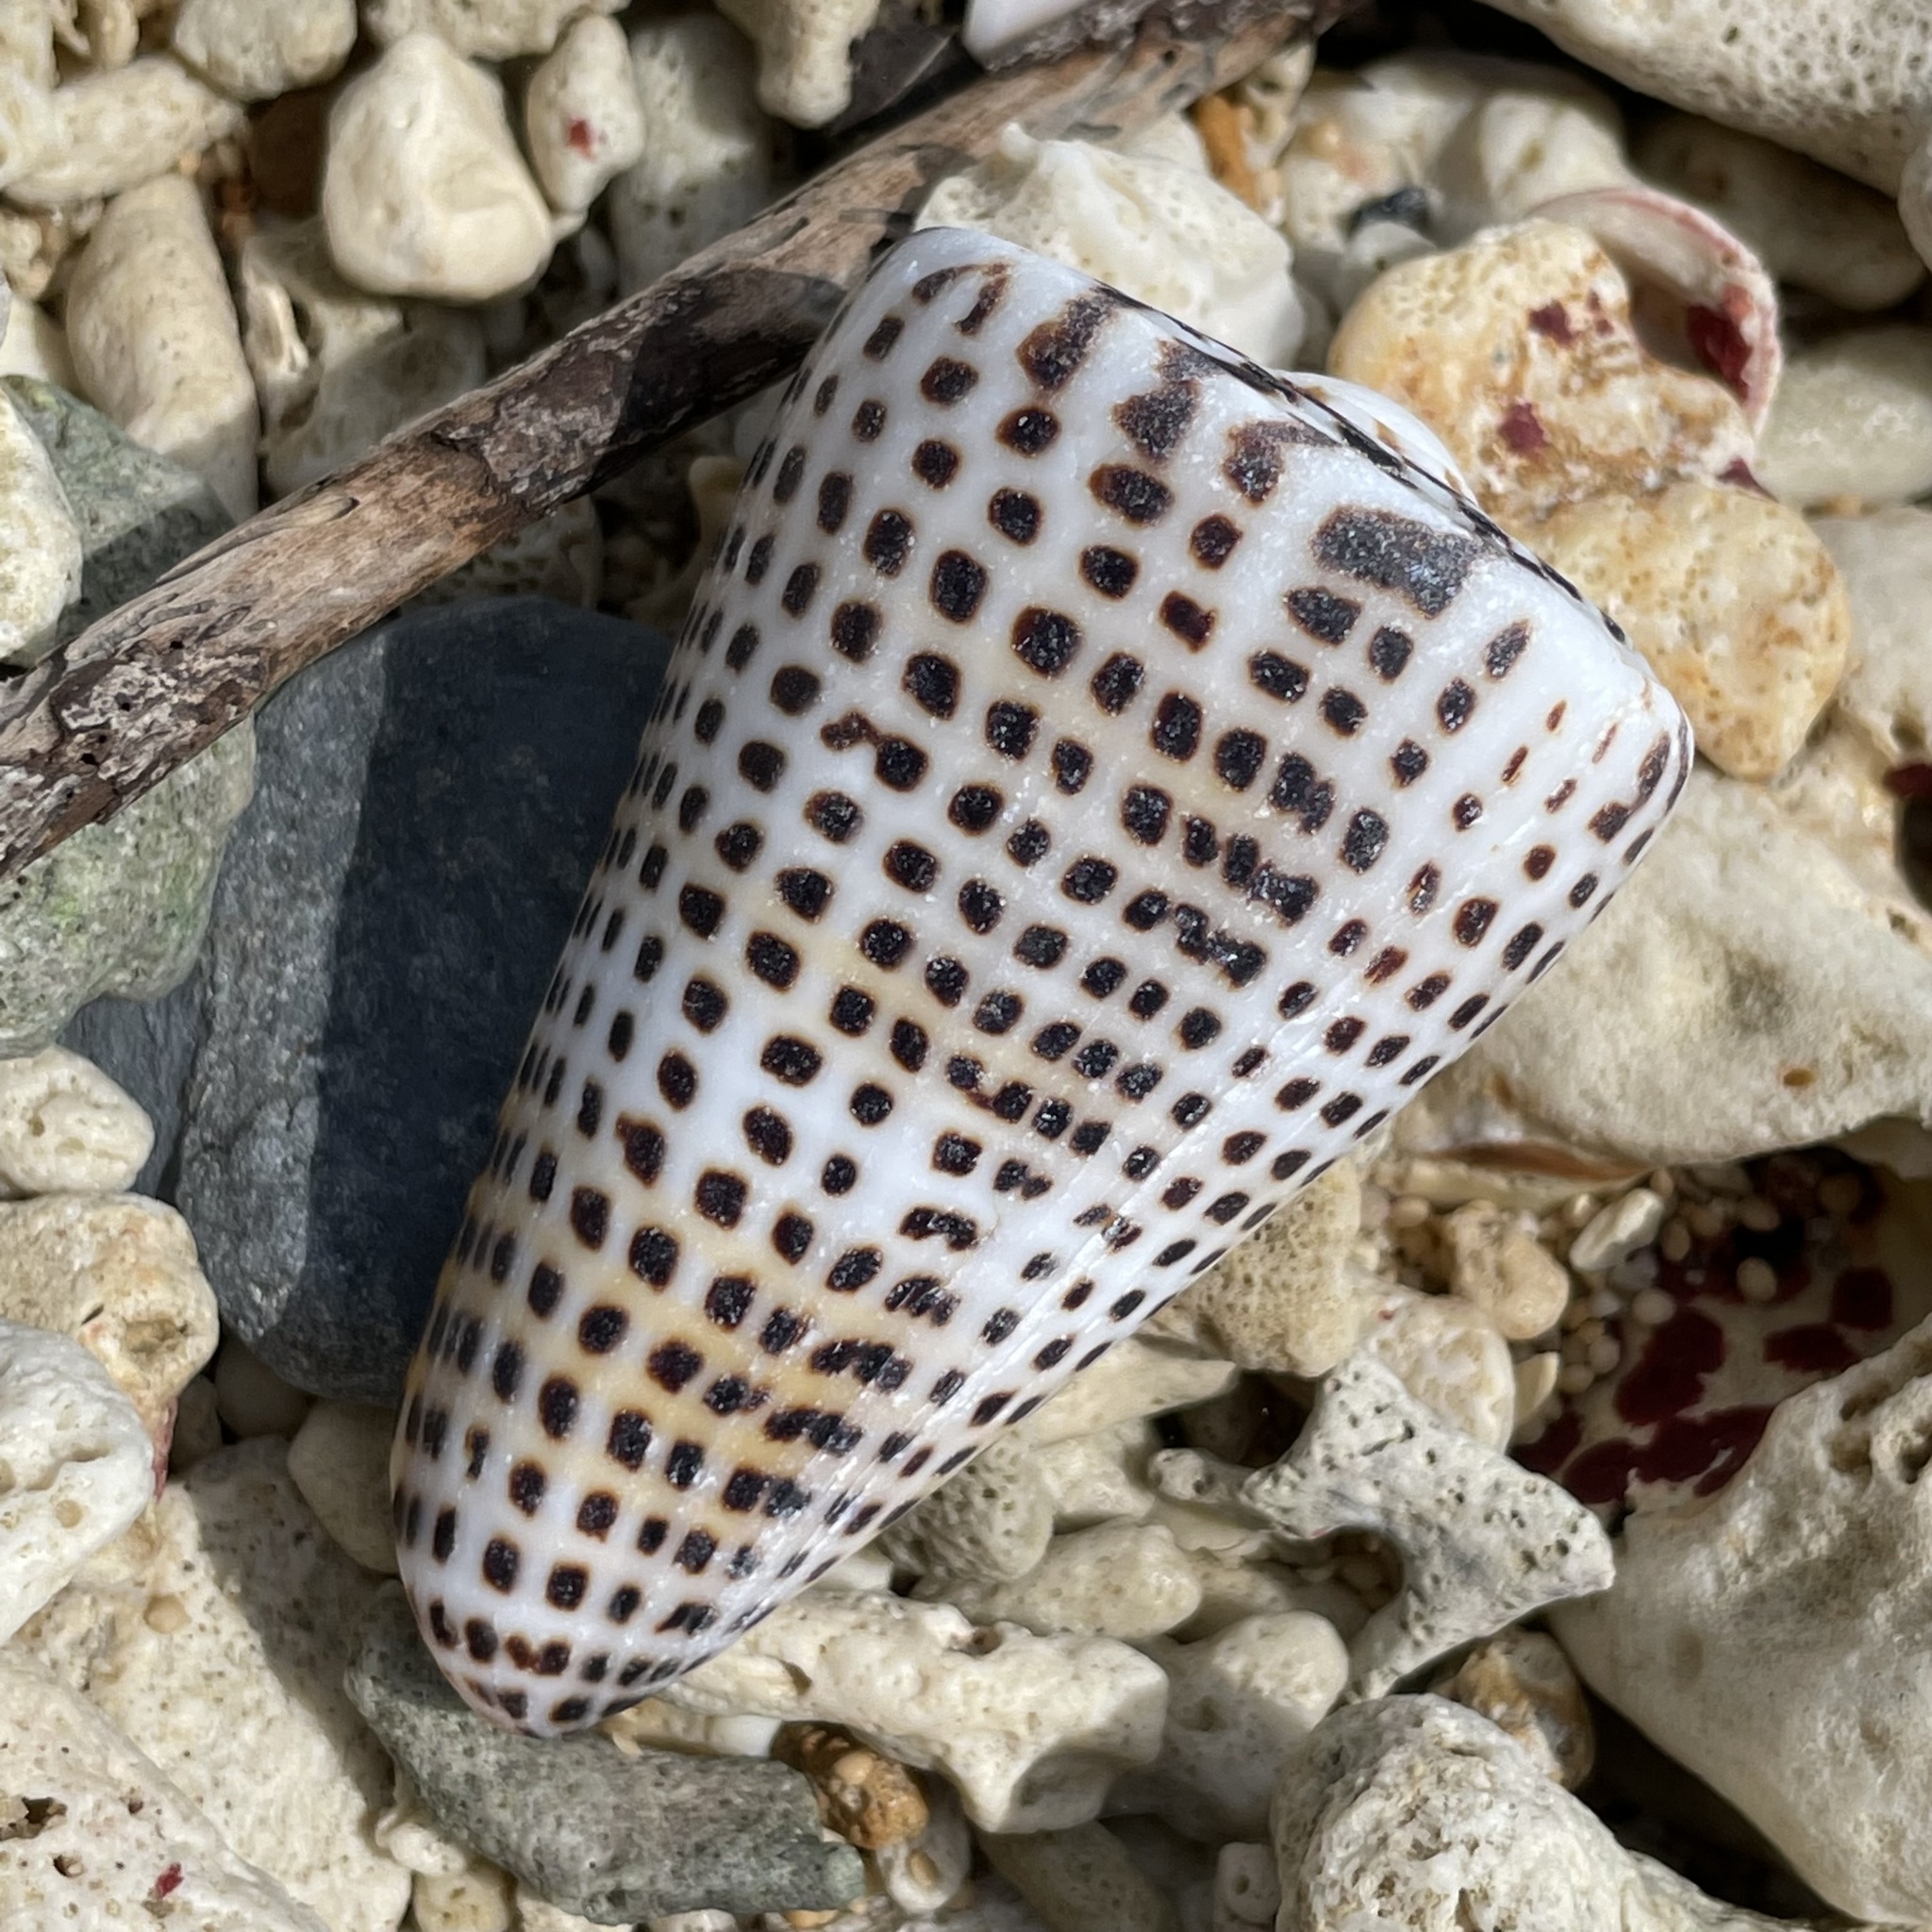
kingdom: Animalia
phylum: Mollusca
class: Gastropoda
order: Neogastropoda
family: Conidae
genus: Conus
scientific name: Conus litteratus
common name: Lettered cone
